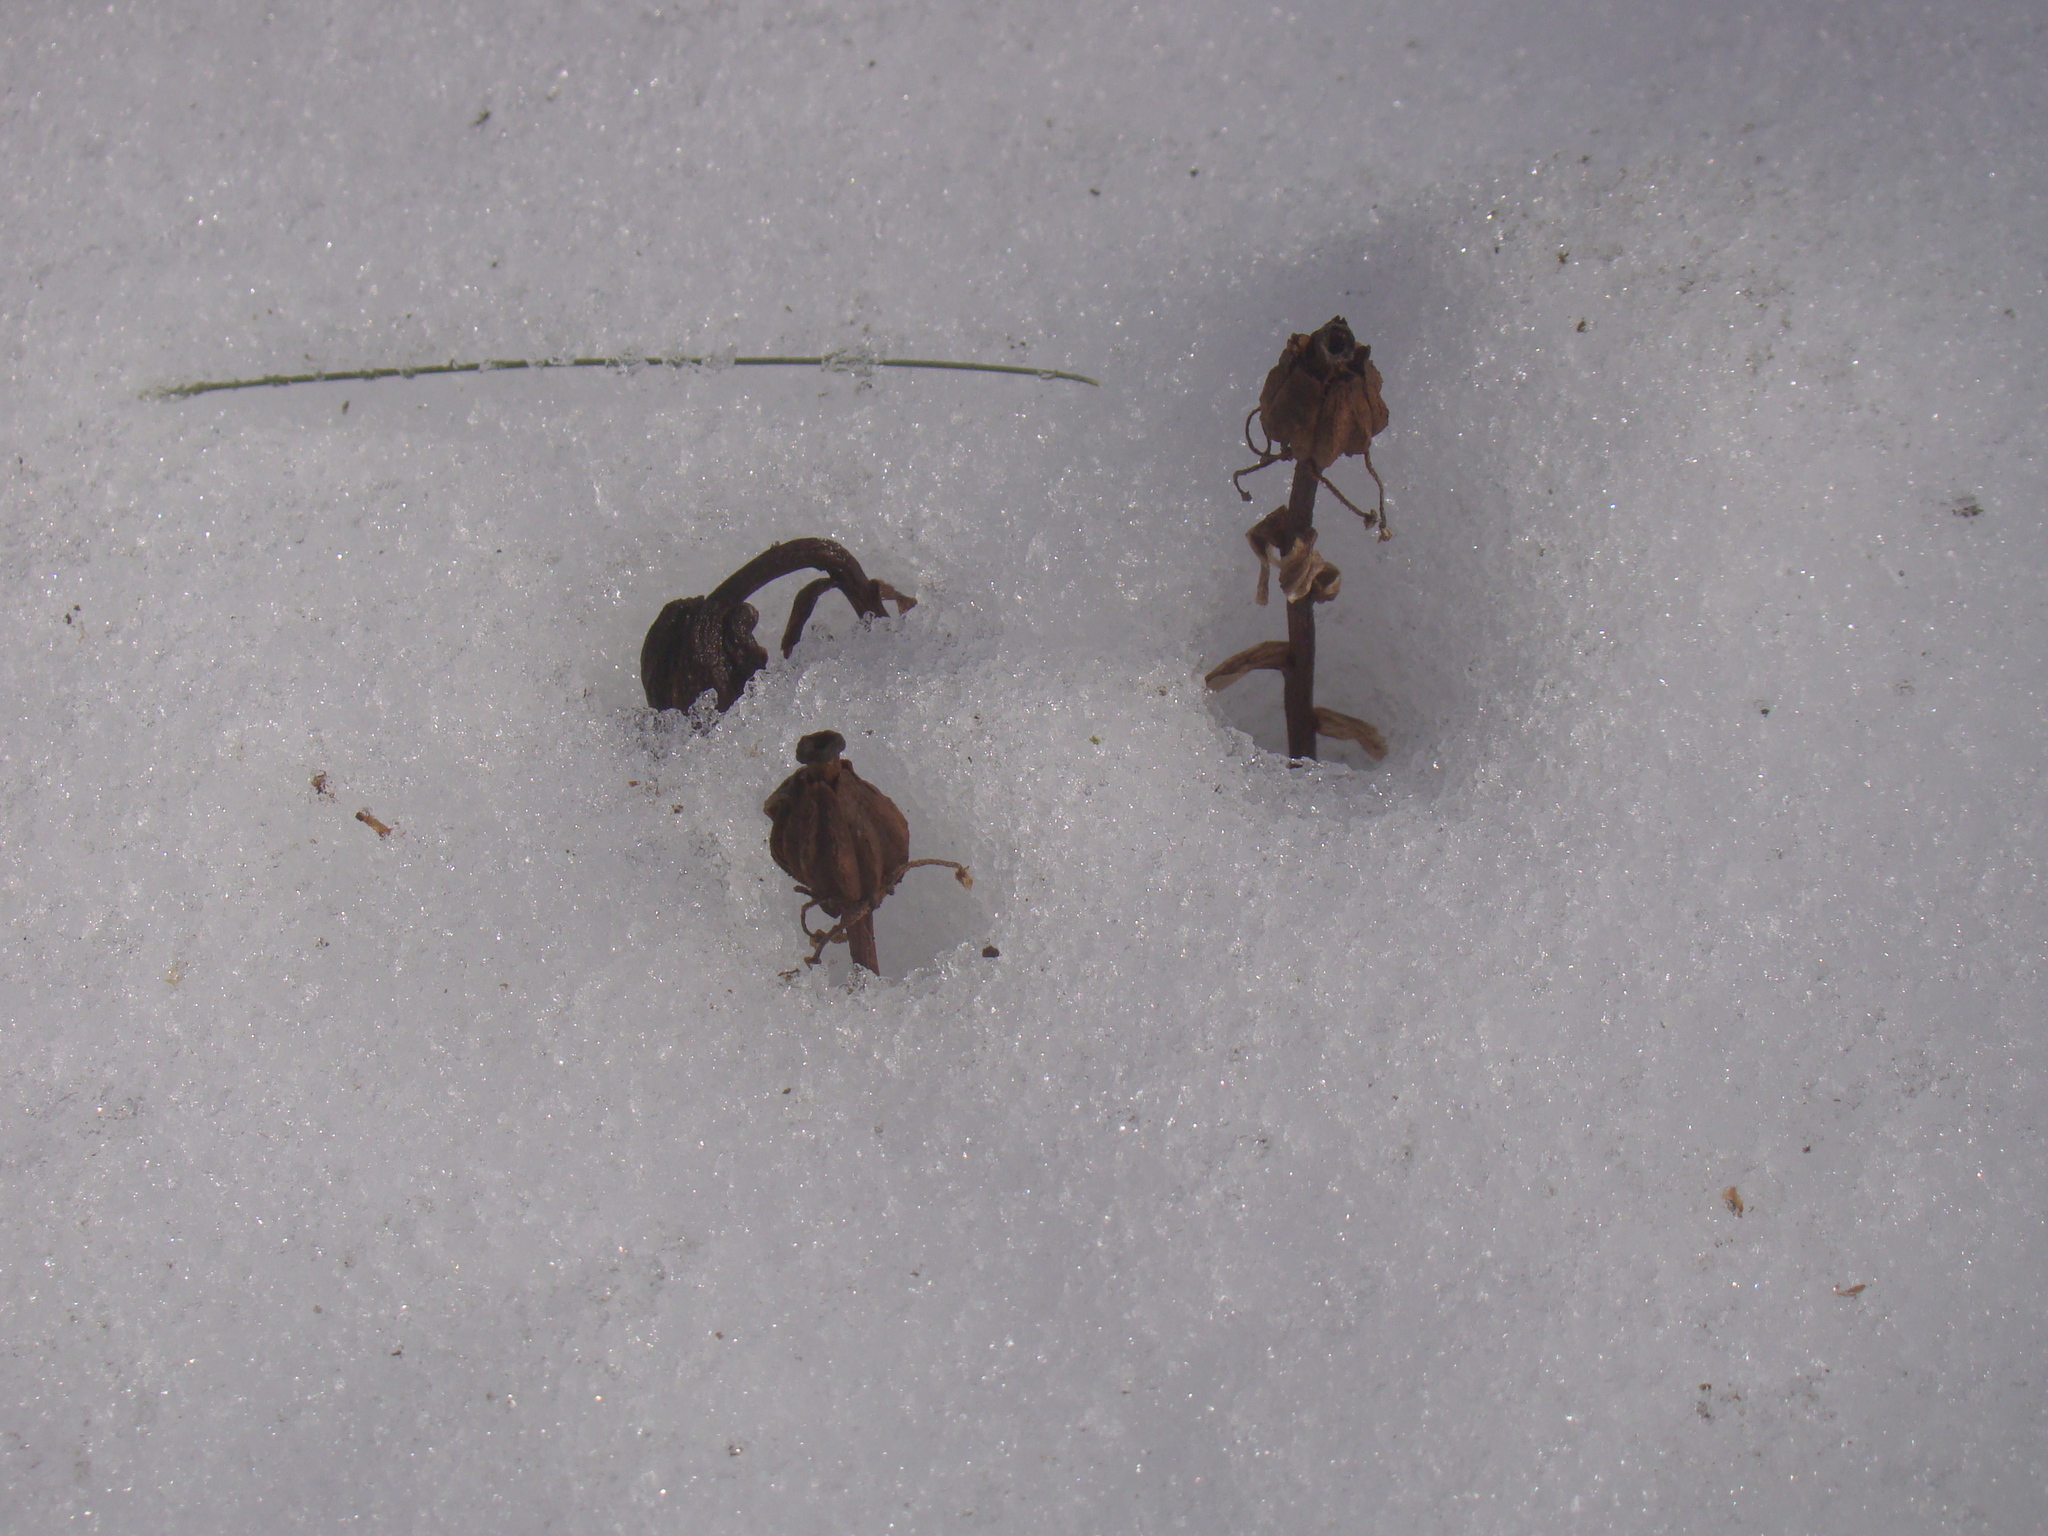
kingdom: Plantae
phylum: Tracheophyta
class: Magnoliopsida
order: Ericales
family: Ericaceae
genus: Monotropa
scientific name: Monotropa uniflora
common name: Convulsion root
